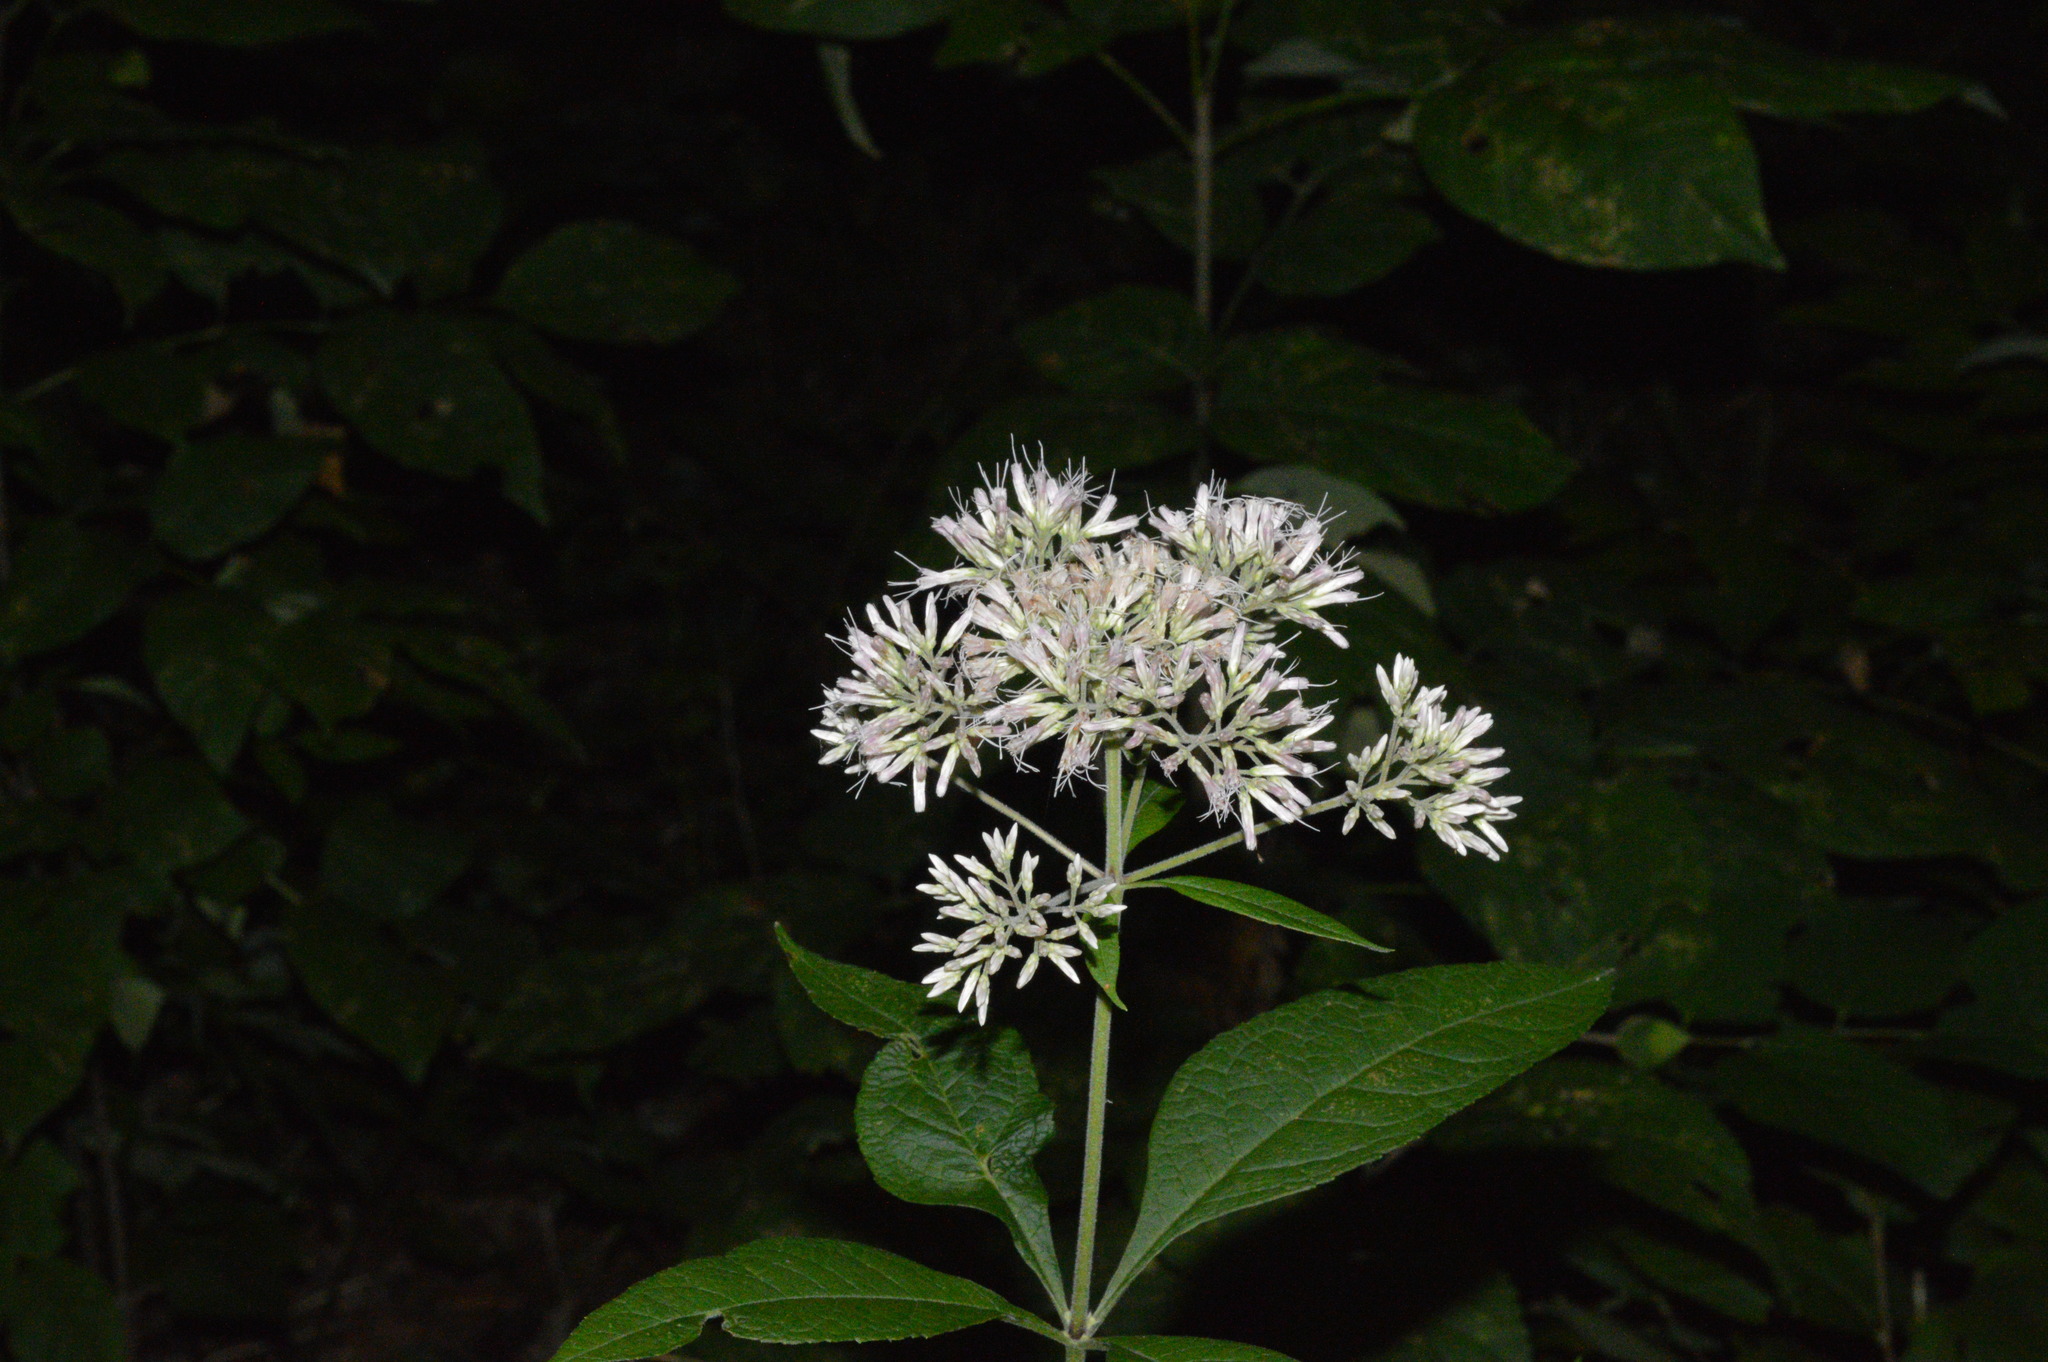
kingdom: Plantae
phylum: Tracheophyta
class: Magnoliopsida
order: Asterales
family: Asteraceae
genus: Eutrochium
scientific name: Eutrochium purpureum
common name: Gravelroot
